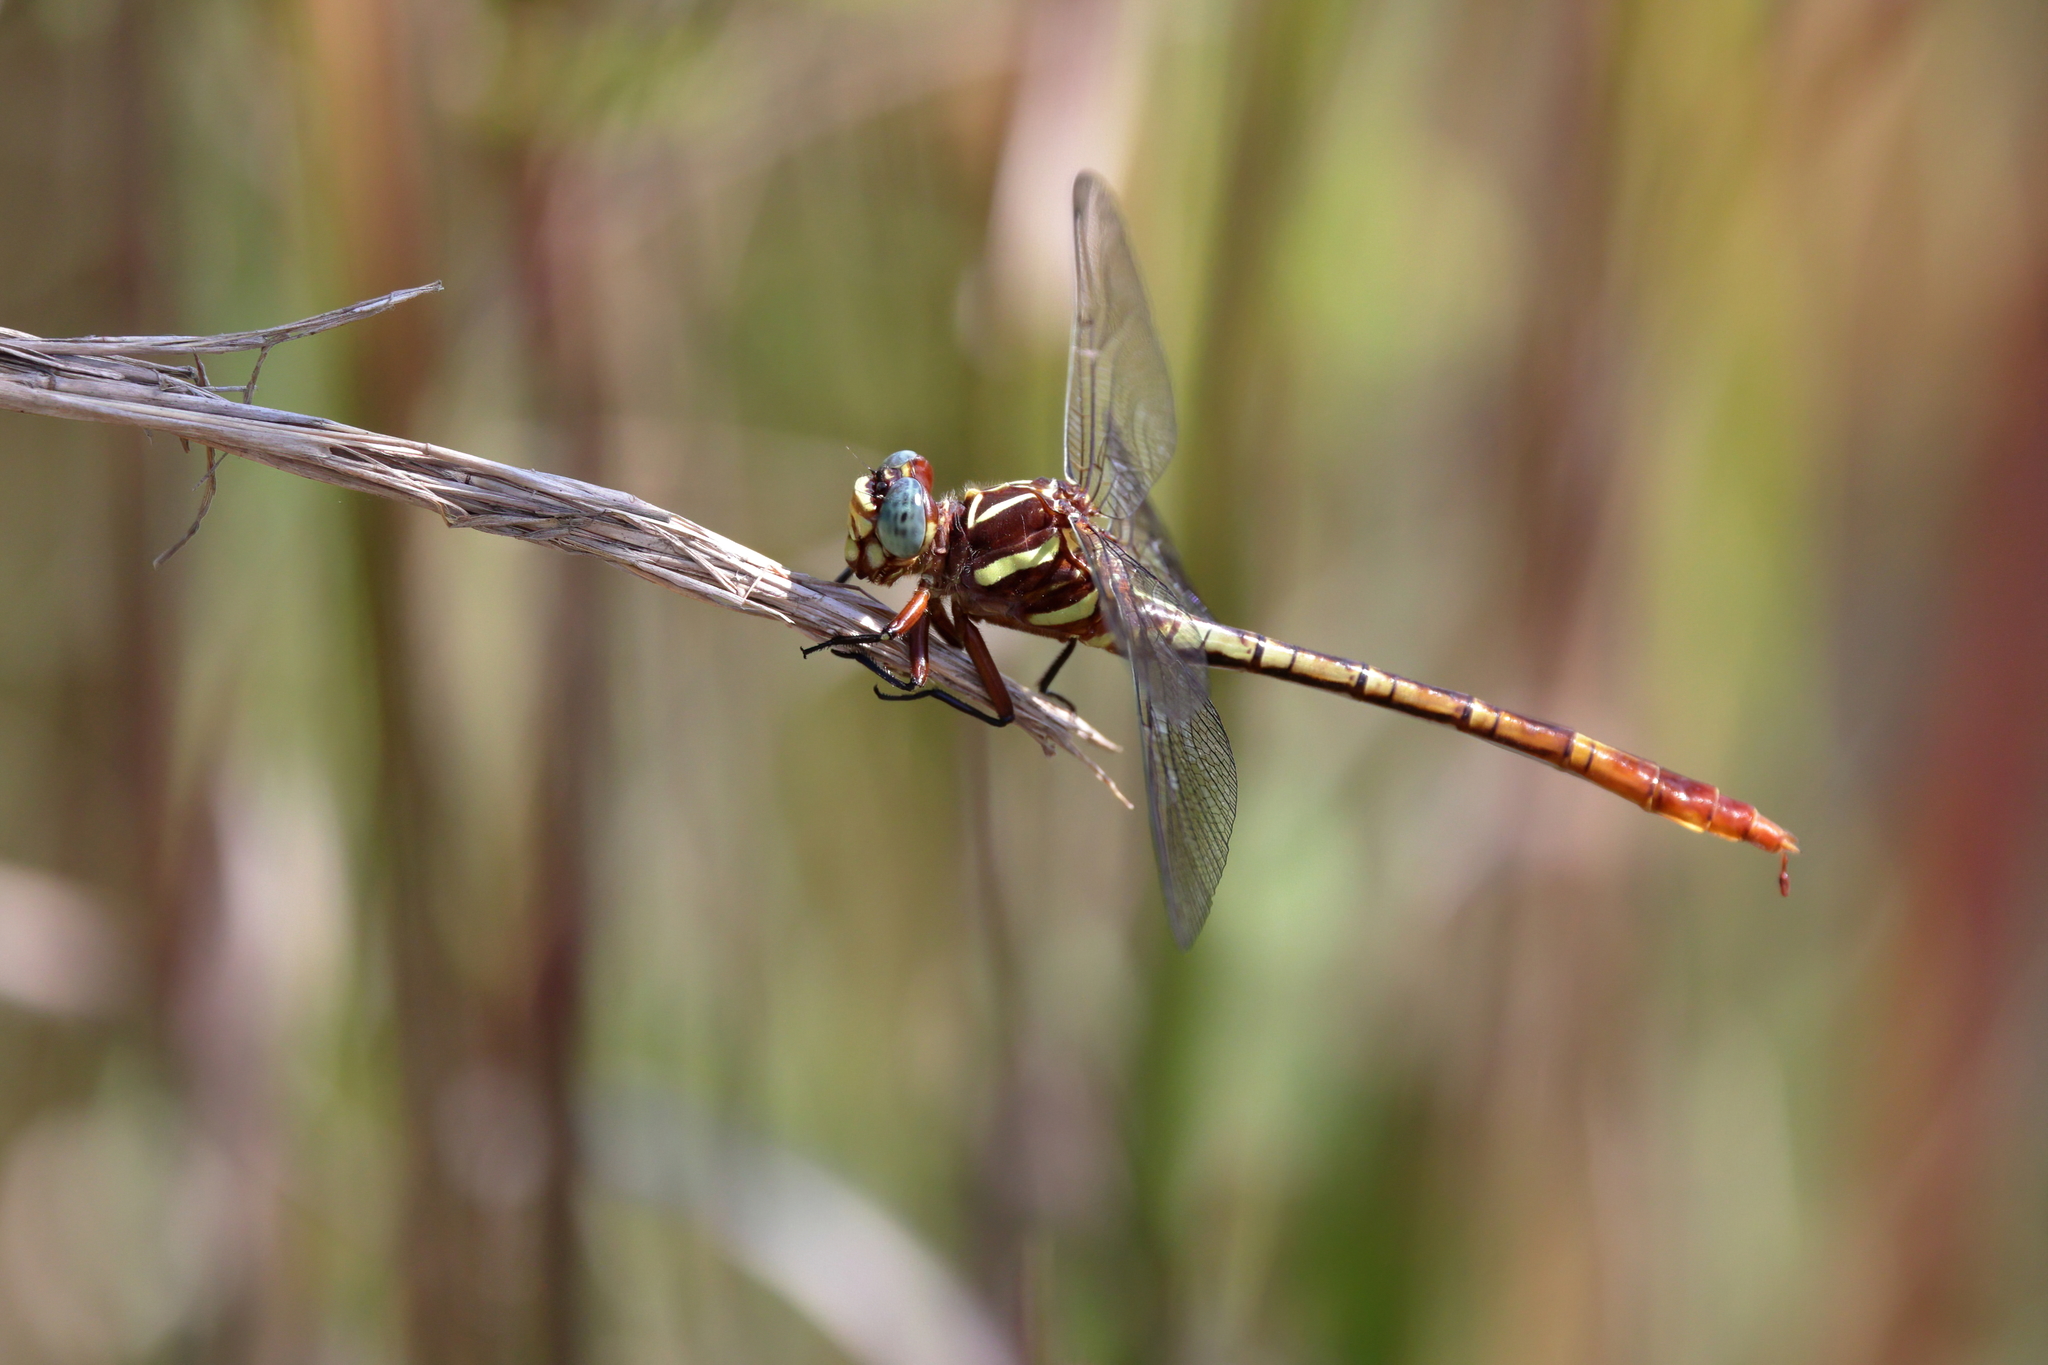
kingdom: Animalia
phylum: Arthropoda
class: Insecta
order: Odonata
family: Gomphidae
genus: Aphylla
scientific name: Aphylla williamsoni
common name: Two-striped forceptail
